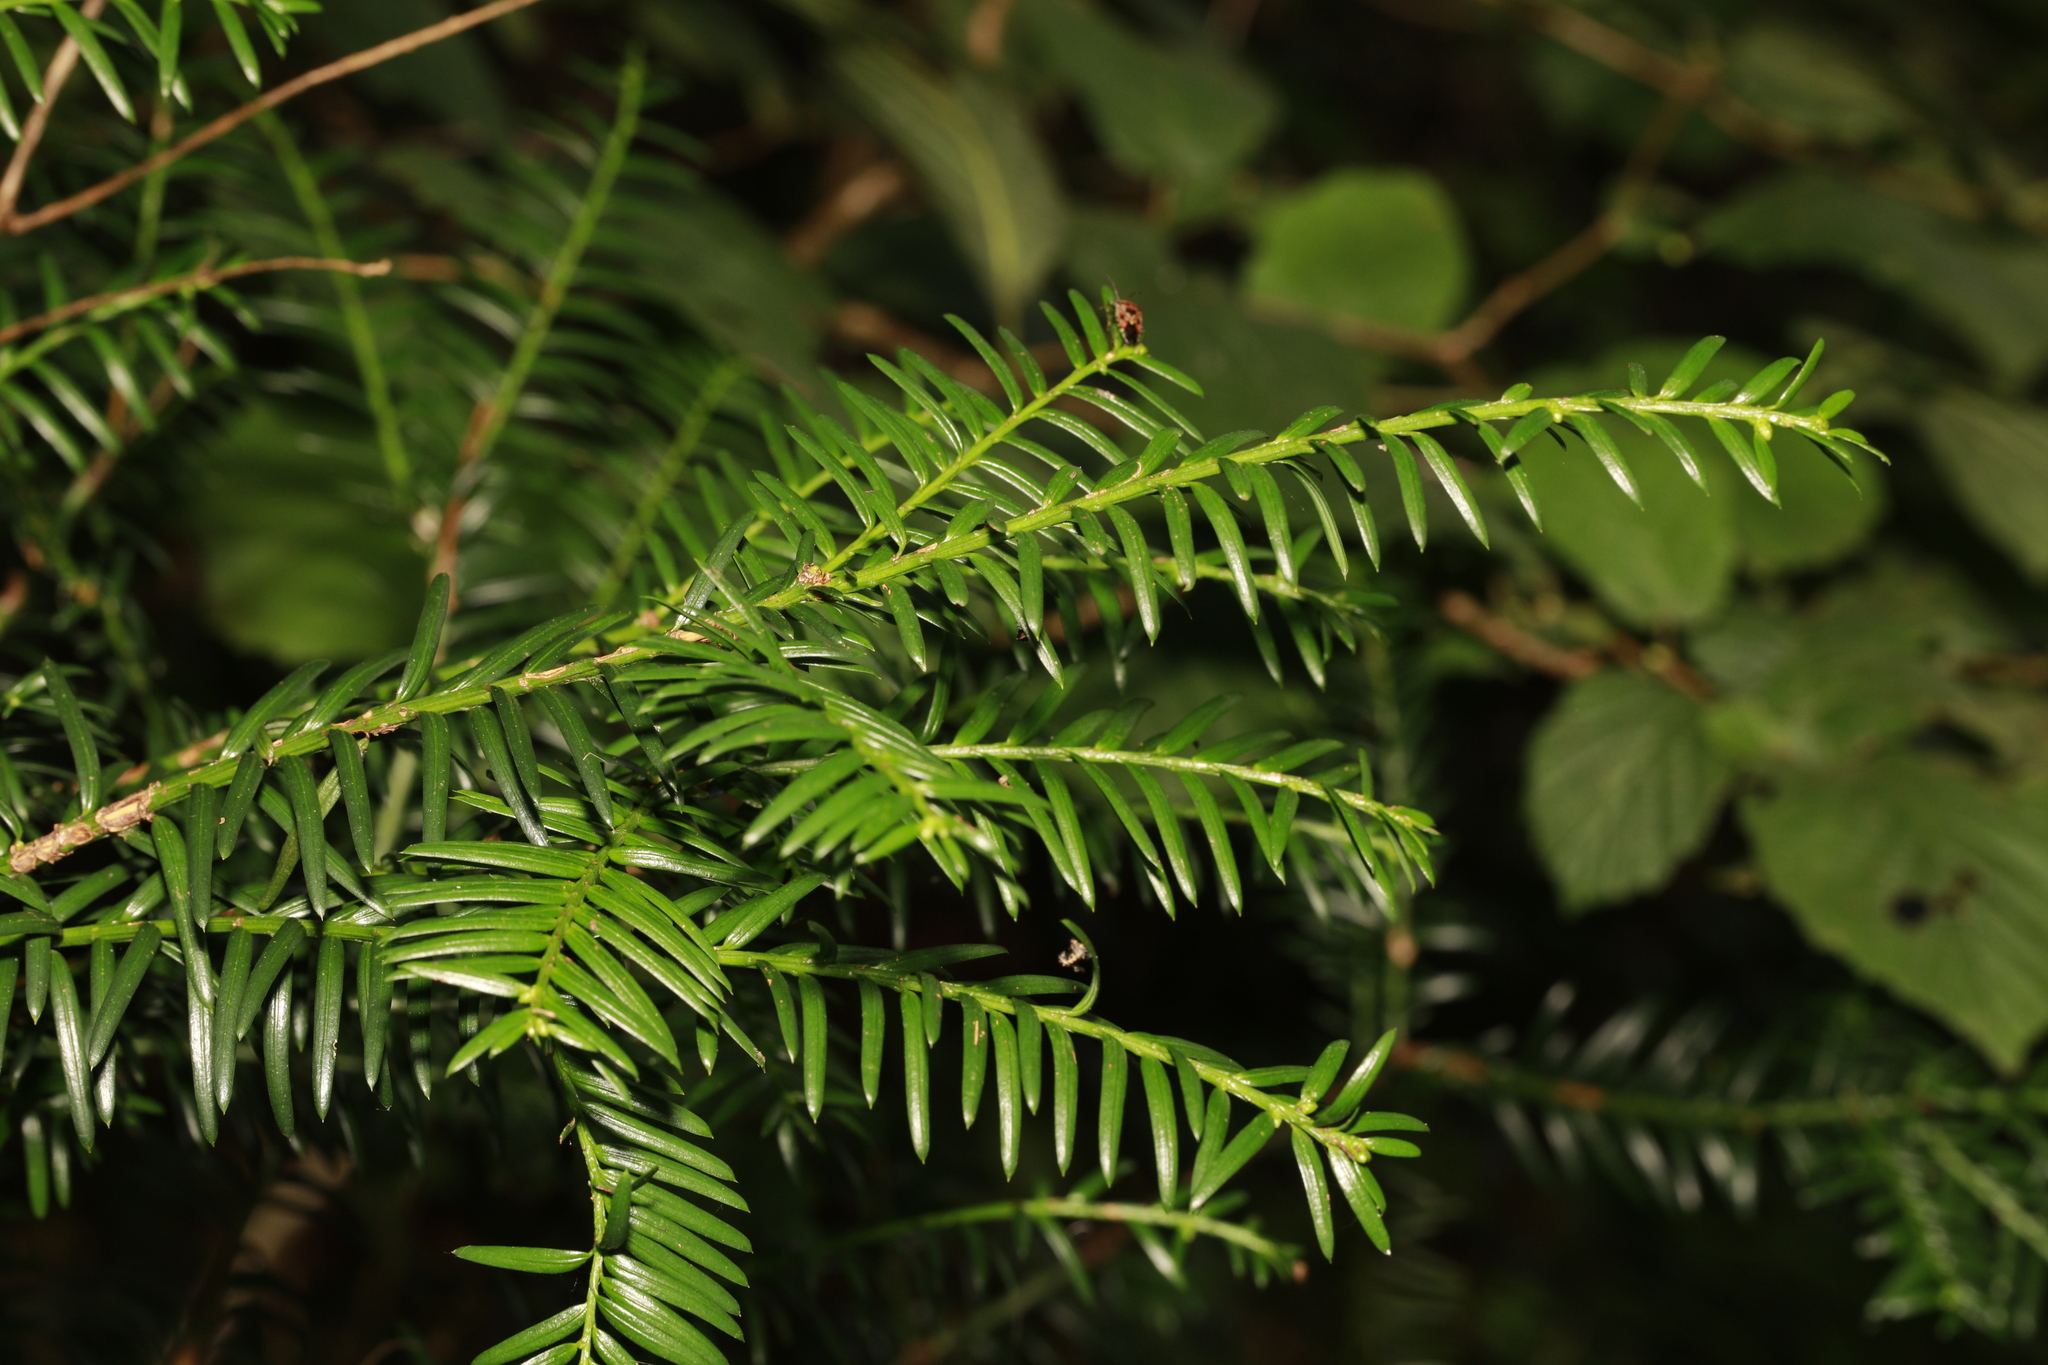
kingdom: Plantae
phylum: Tracheophyta
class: Pinopsida
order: Pinales
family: Taxaceae
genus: Taxus
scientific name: Taxus baccata
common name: Yew
